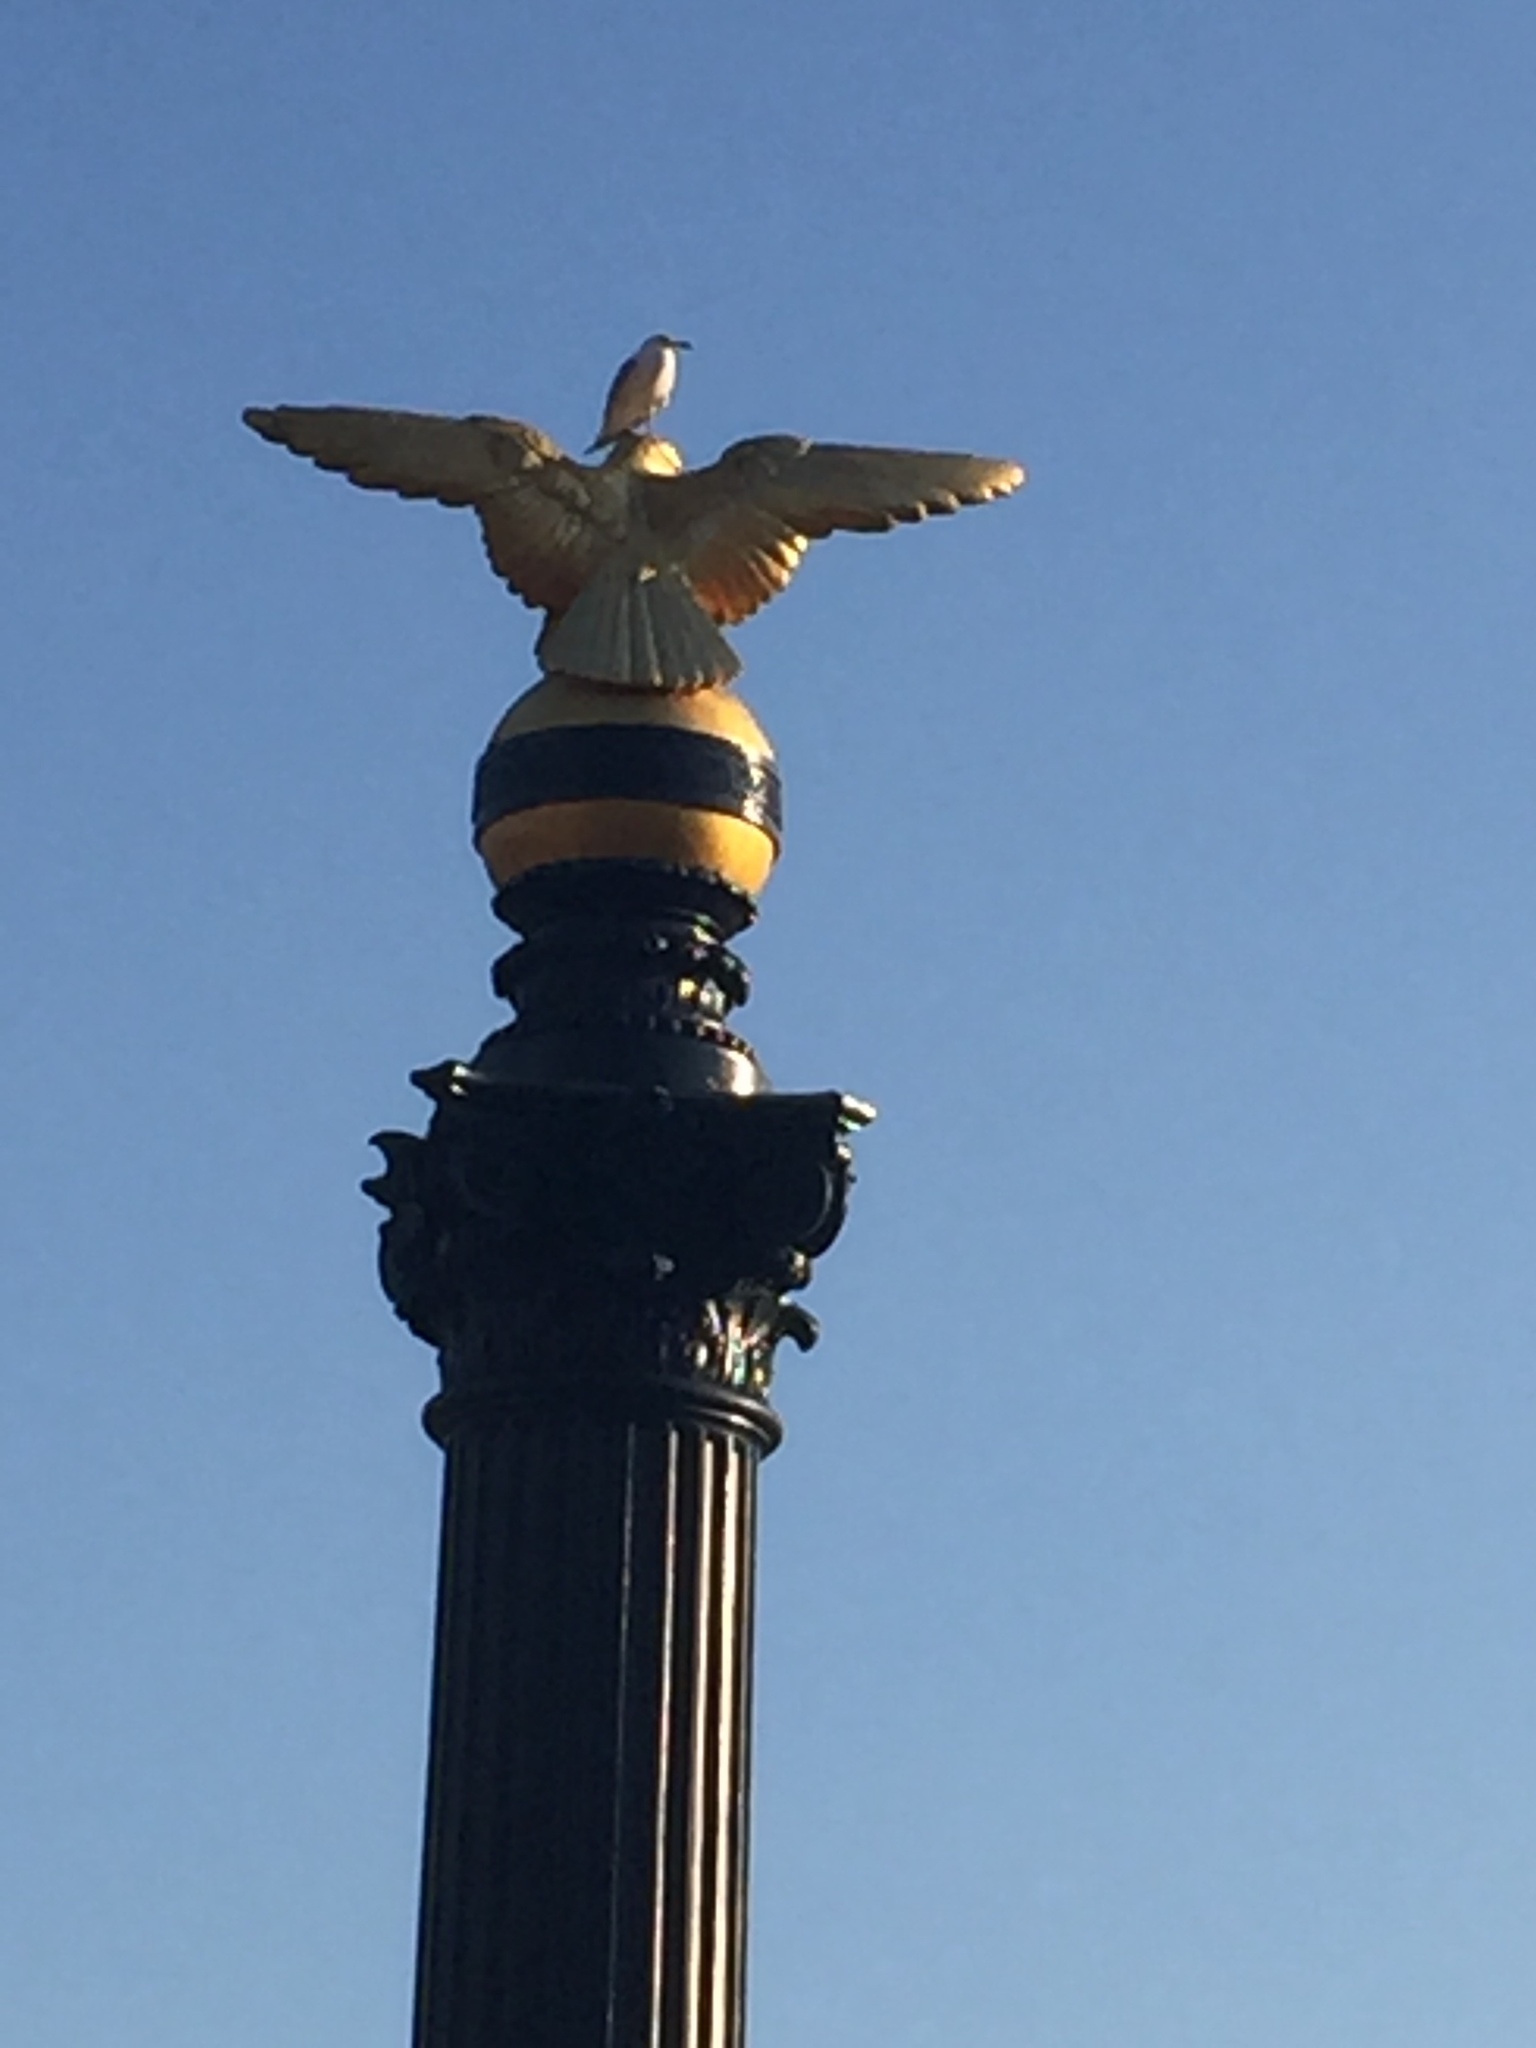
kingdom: Animalia
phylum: Chordata
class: Aves
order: Charadriiformes
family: Laridae
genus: Larus
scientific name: Larus delawarensis
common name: Ring-billed gull
